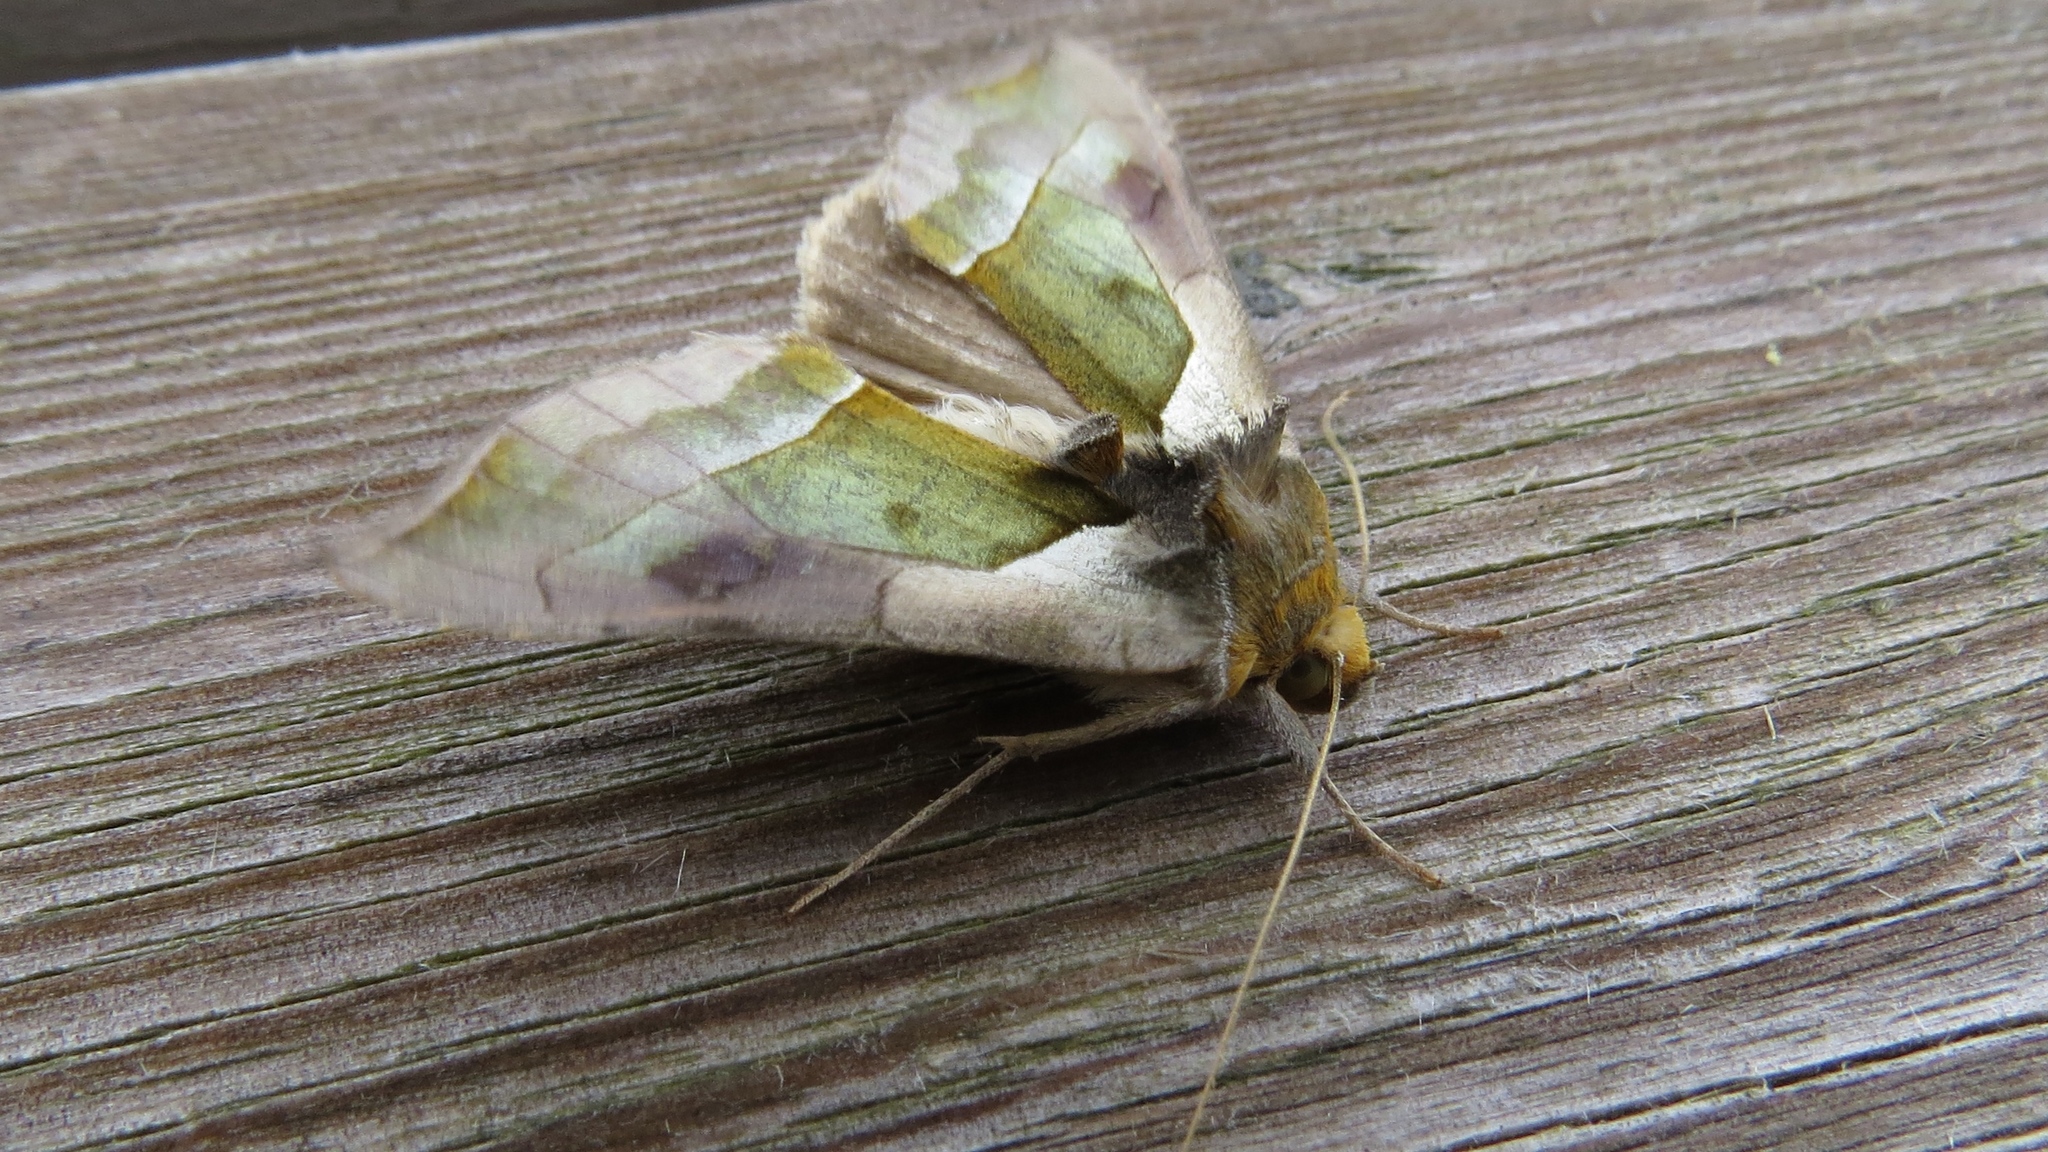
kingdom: Animalia
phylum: Arthropoda
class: Insecta
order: Lepidoptera
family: Noctuidae
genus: Diachrysia
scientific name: Diachrysia balluca
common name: Green-patched looper moth
